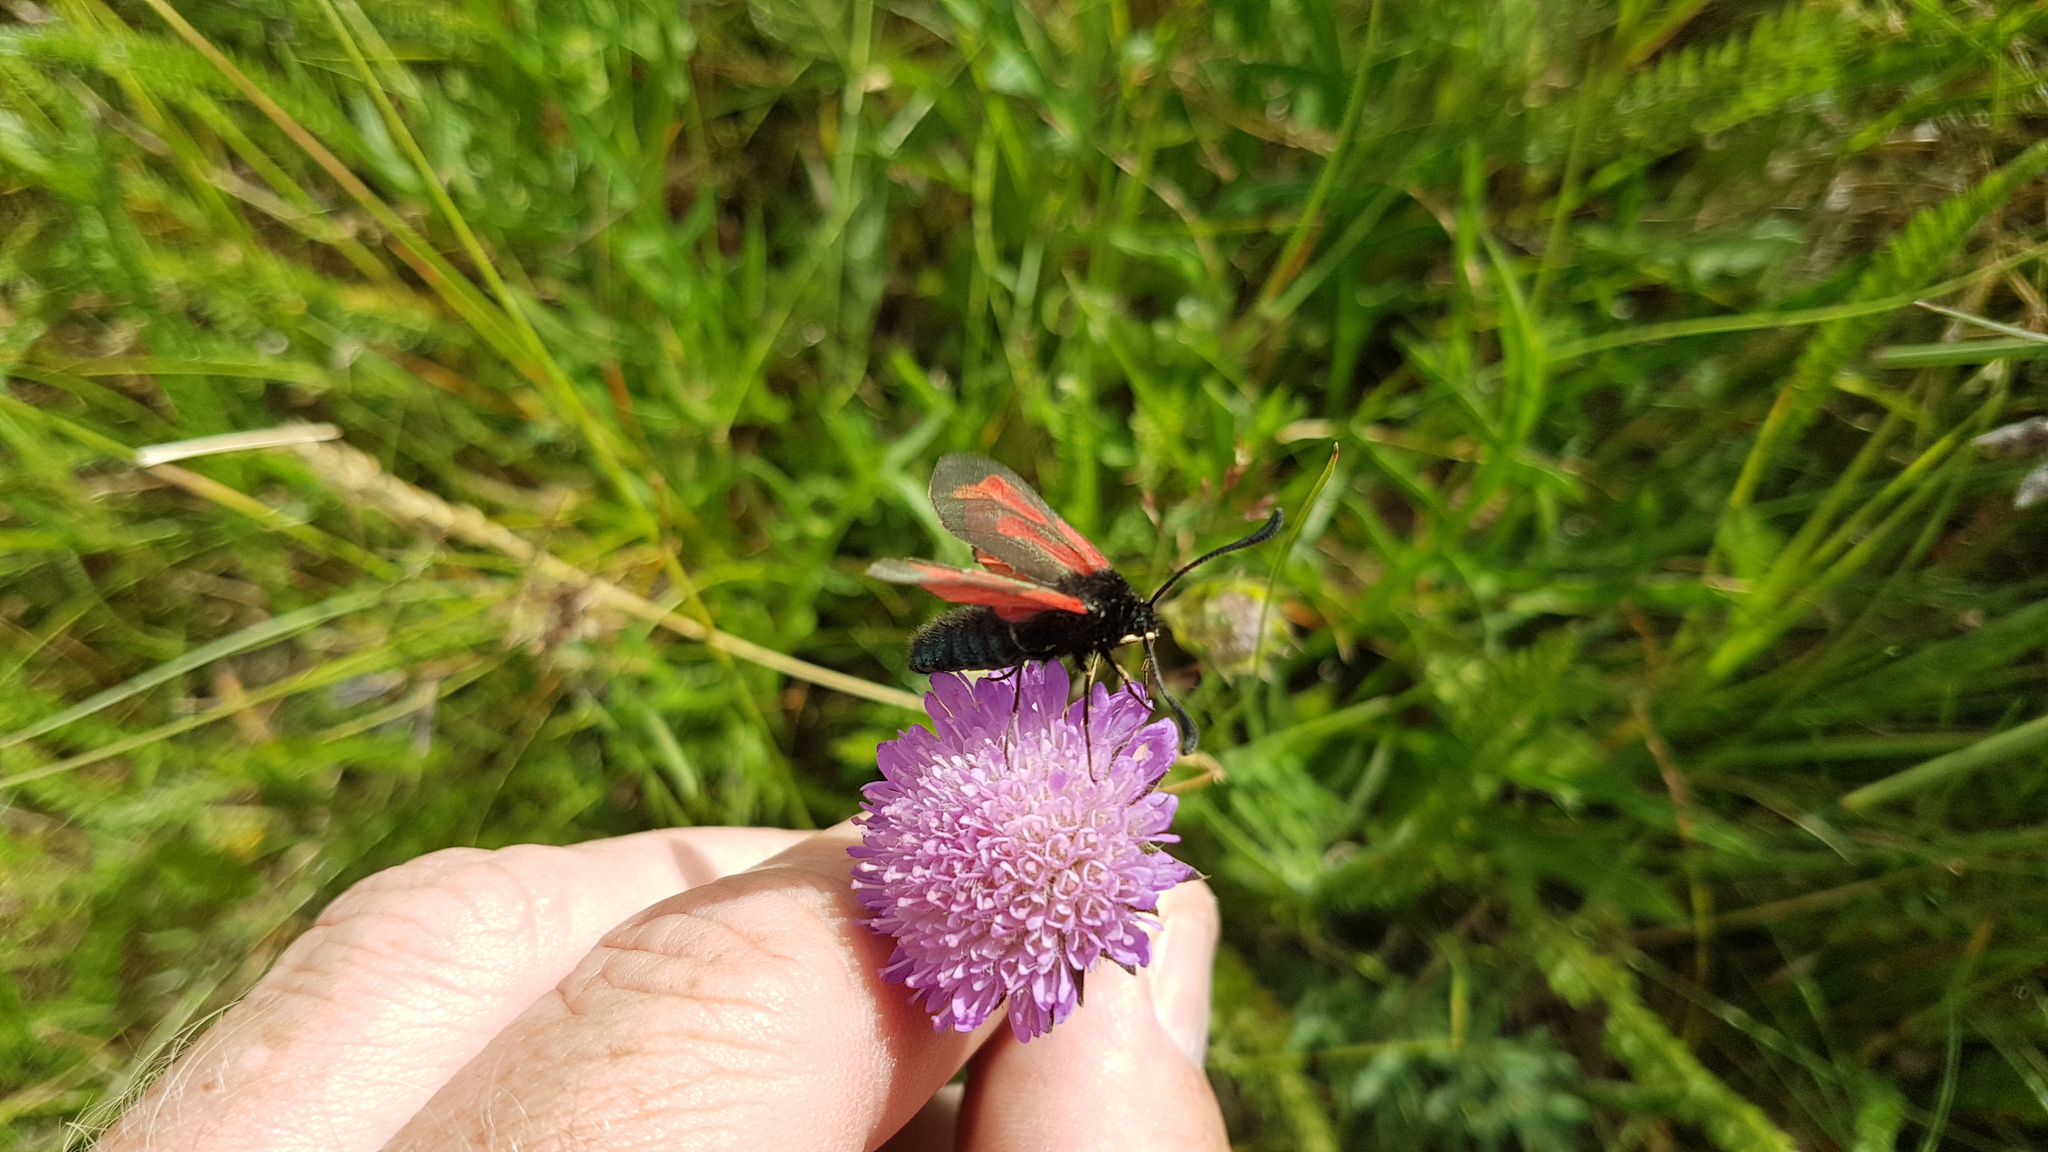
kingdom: Animalia
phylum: Arthropoda
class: Insecta
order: Lepidoptera
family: Zygaenidae
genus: Zygaena
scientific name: Zygaena minos
